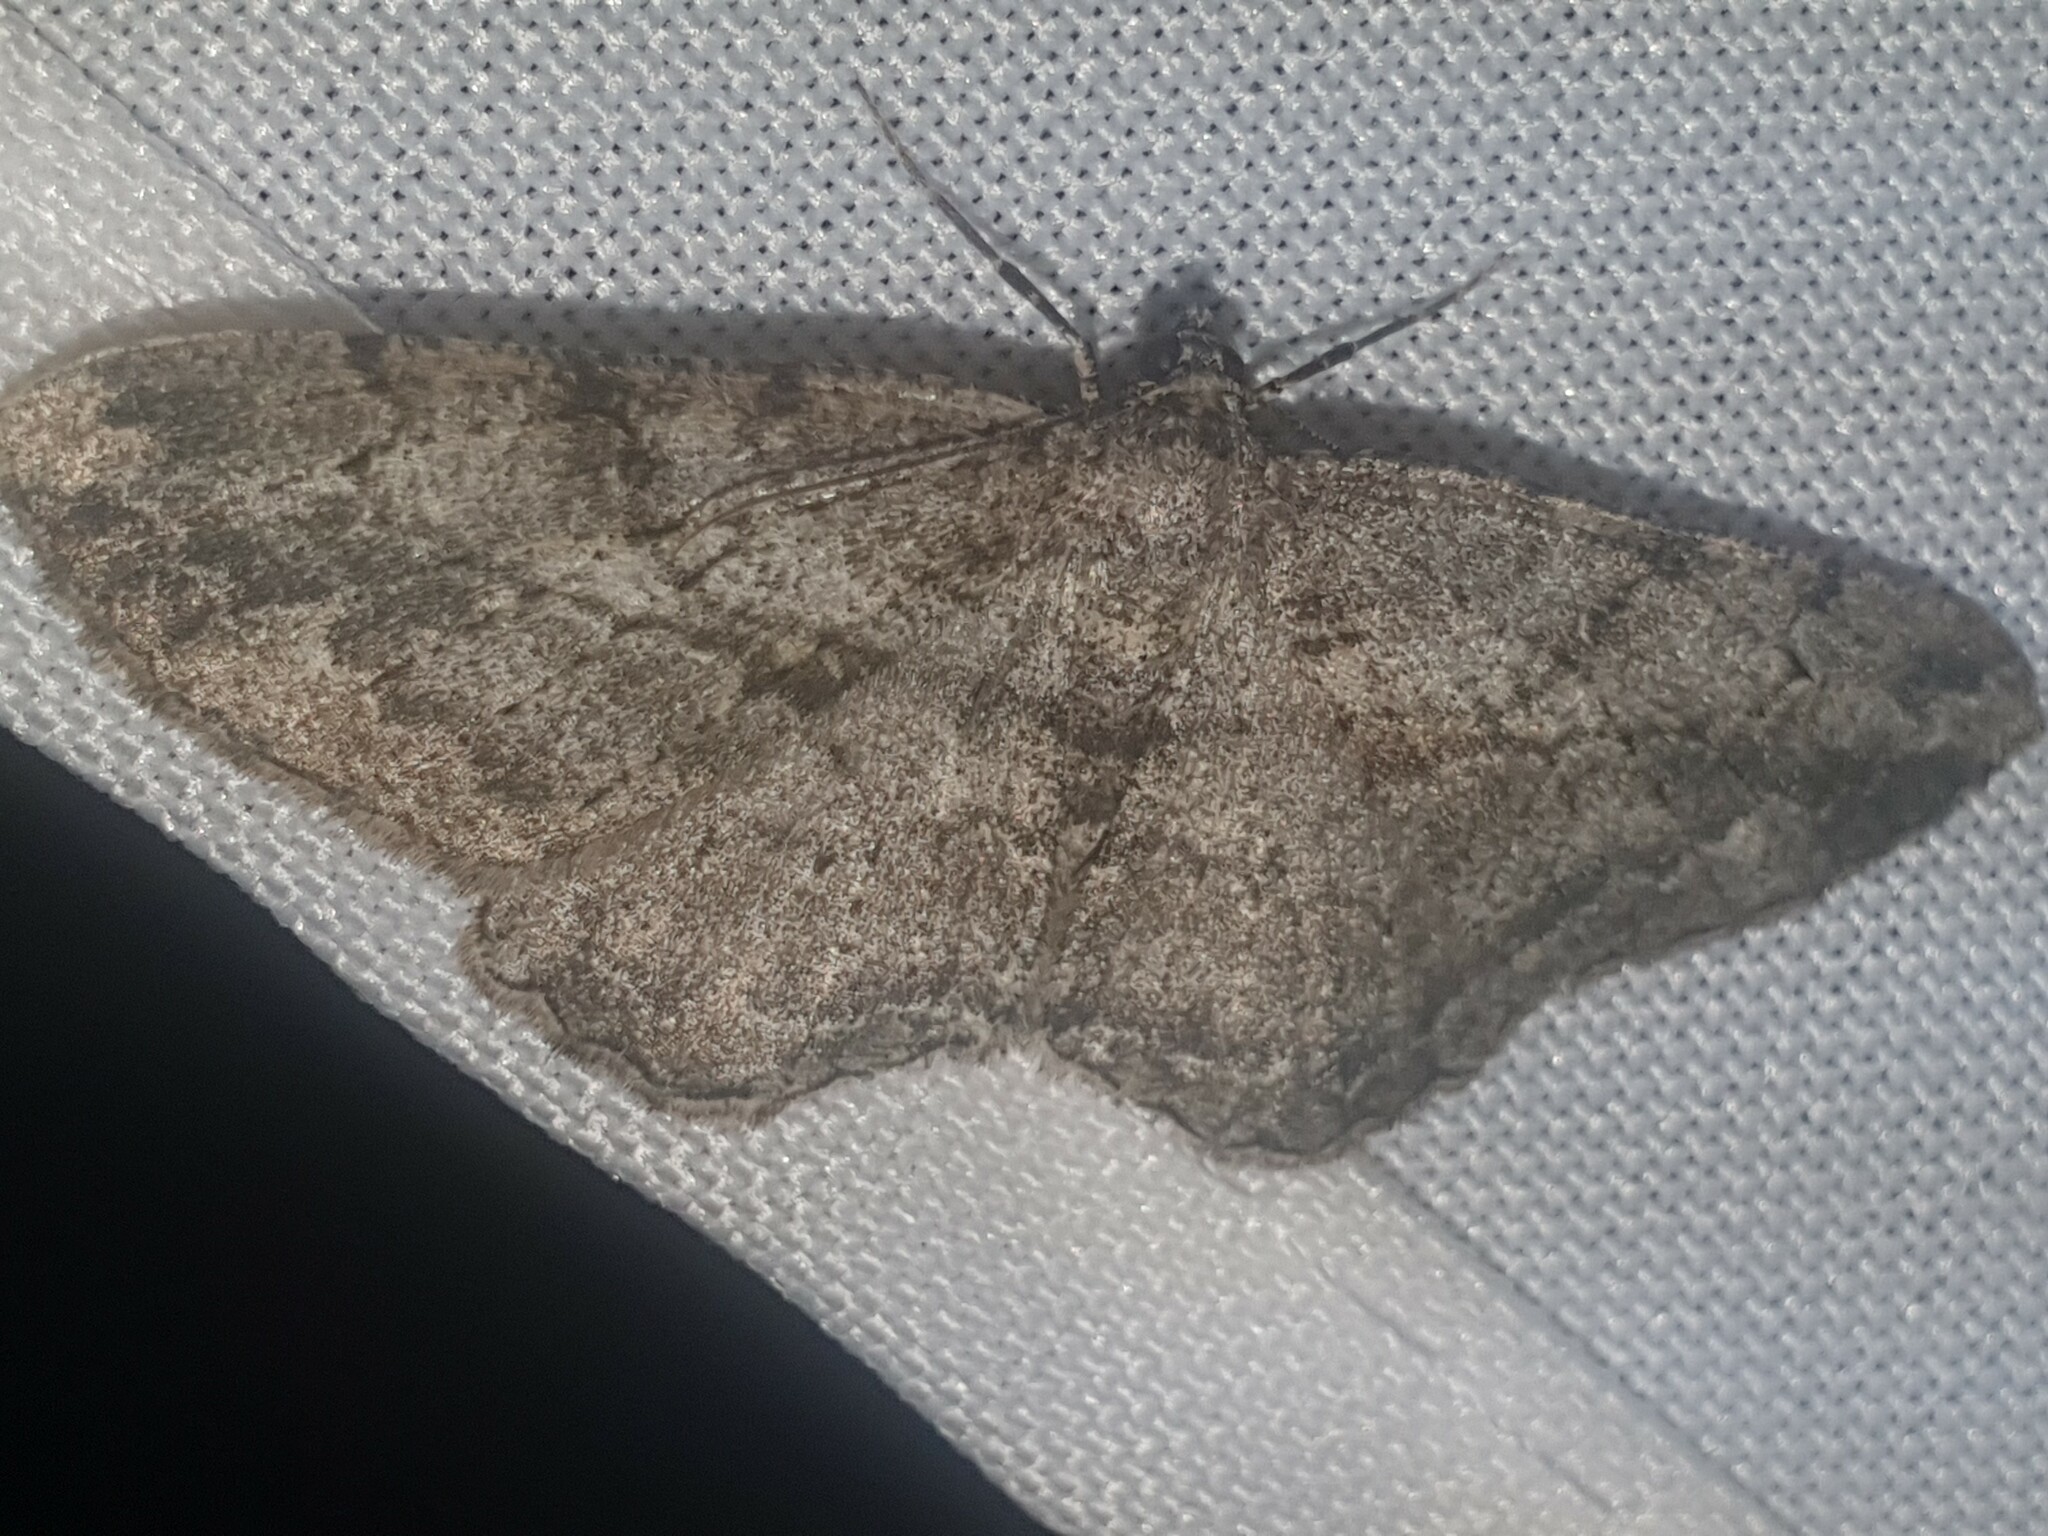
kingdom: Animalia
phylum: Arthropoda
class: Insecta
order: Lepidoptera
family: Geometridae
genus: Peribatodes
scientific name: Peribatodes rhomboidaria
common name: Willow beauty
